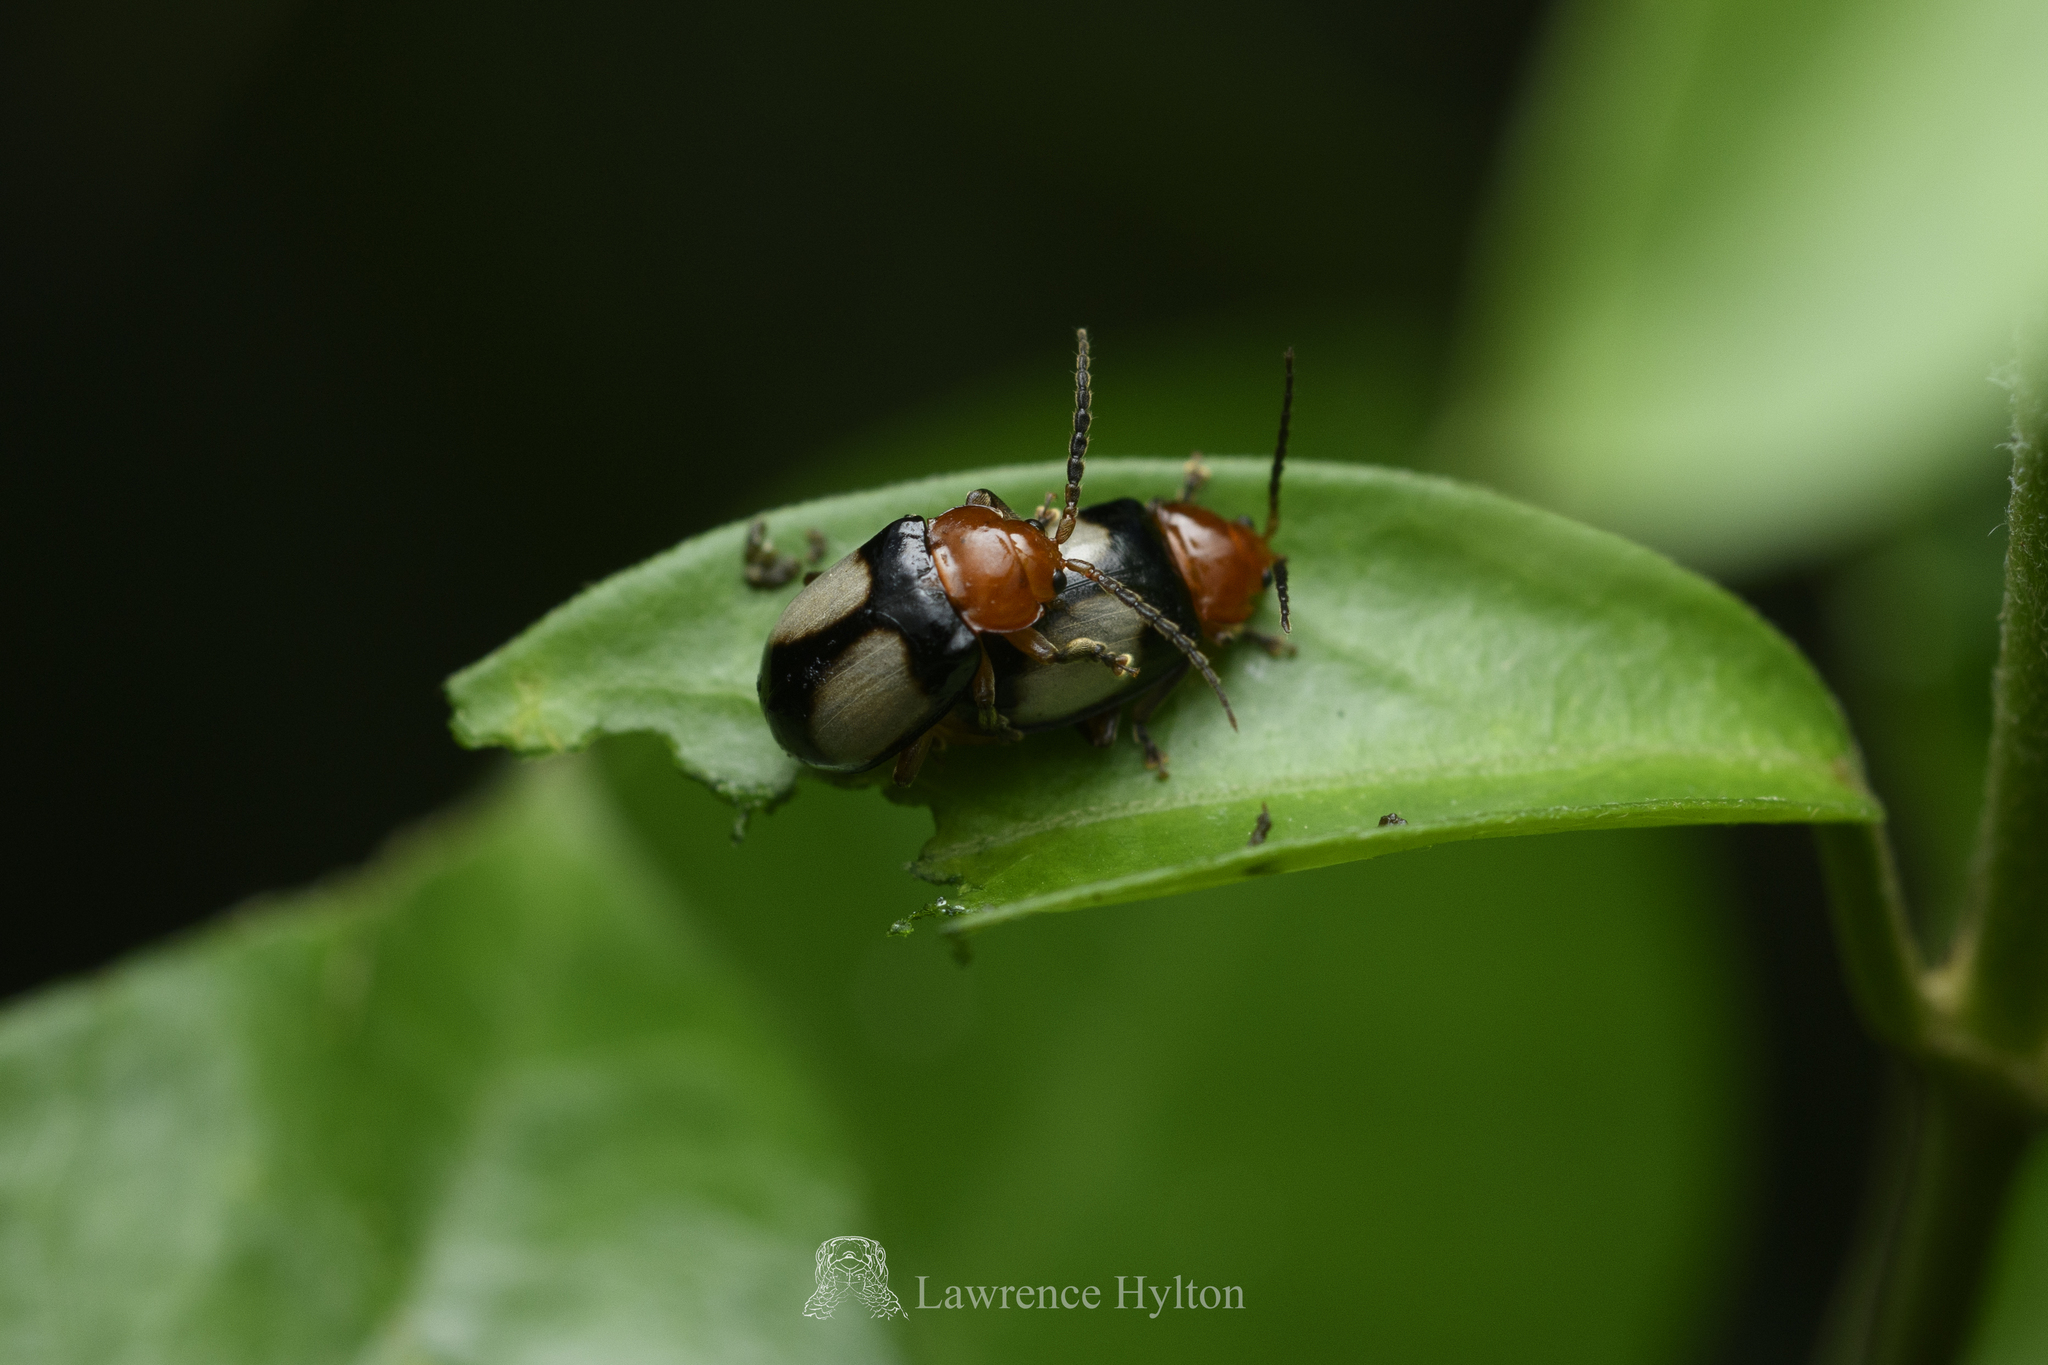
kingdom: Animalia
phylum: Arthropoda
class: Insecta
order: Coleoptera
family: Chrysomelidae
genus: Phygasia
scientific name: Phygasia ornata
